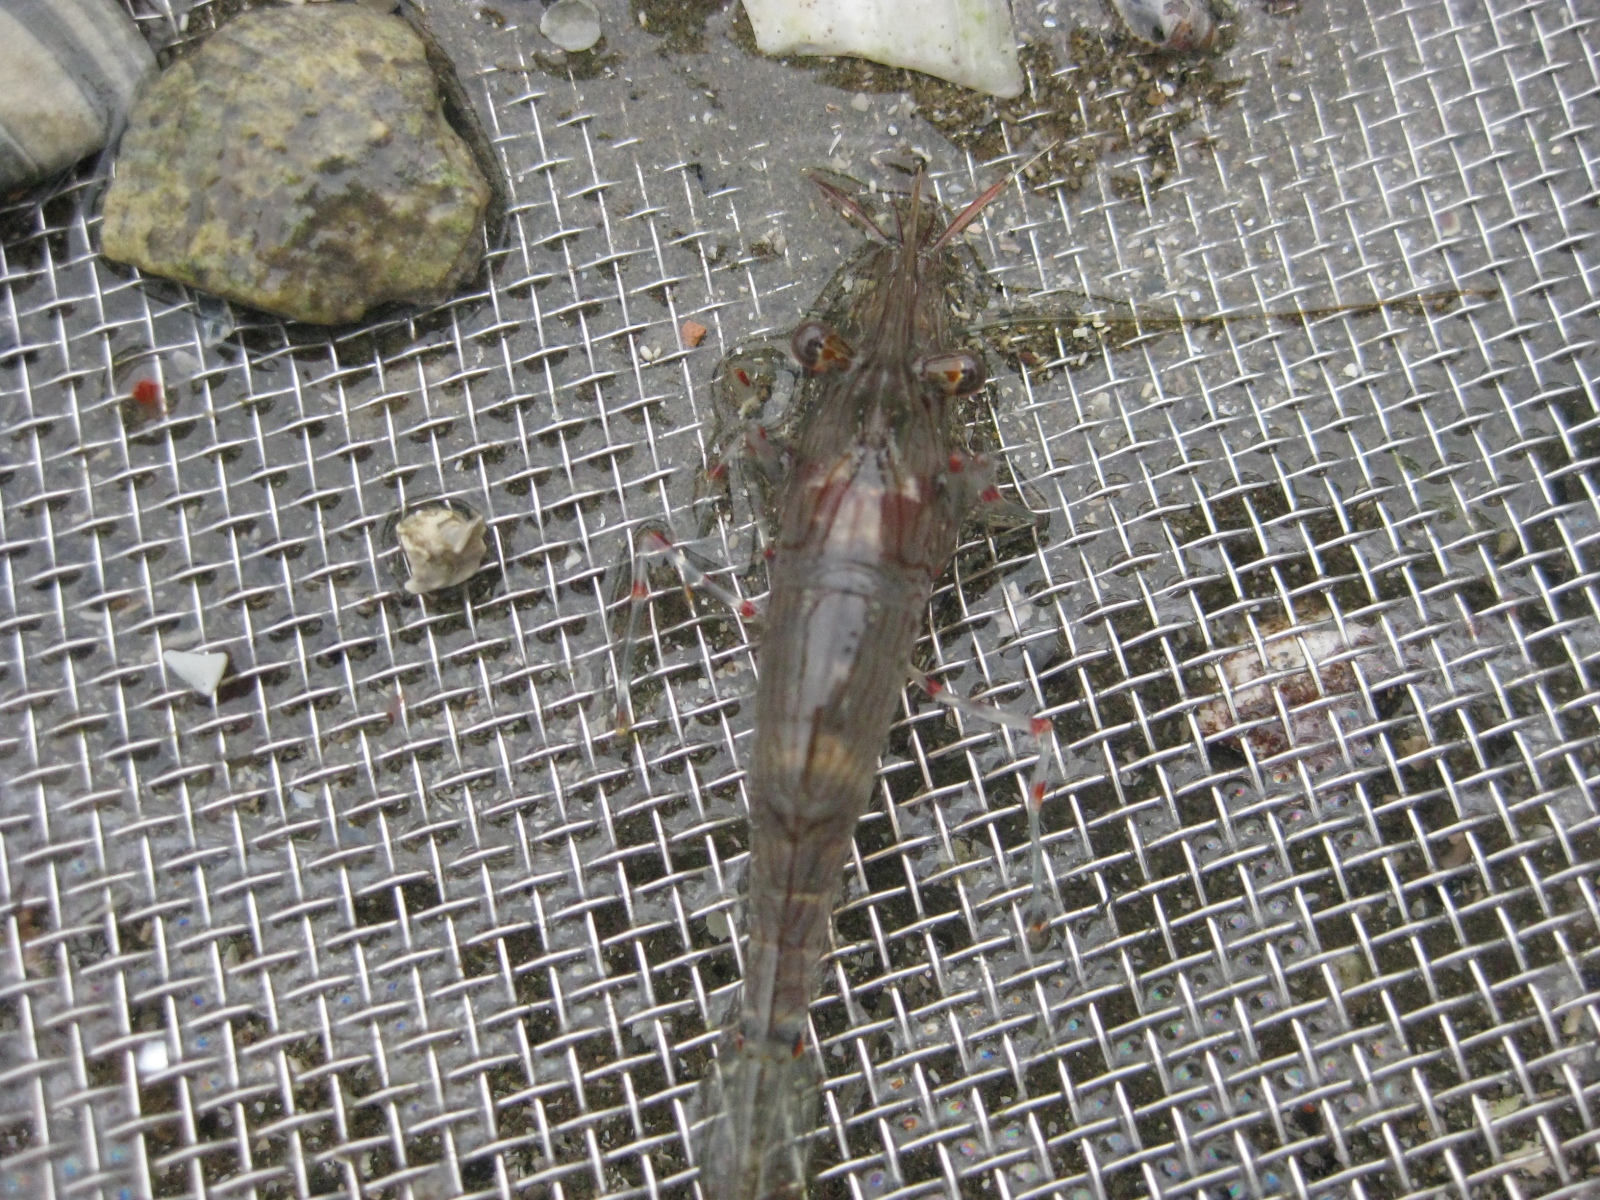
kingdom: Animalia
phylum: Arthropoda
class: Malacostraca
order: Decapoda
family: Palaemonidae
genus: Palaemon
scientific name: Palaemon affinis
